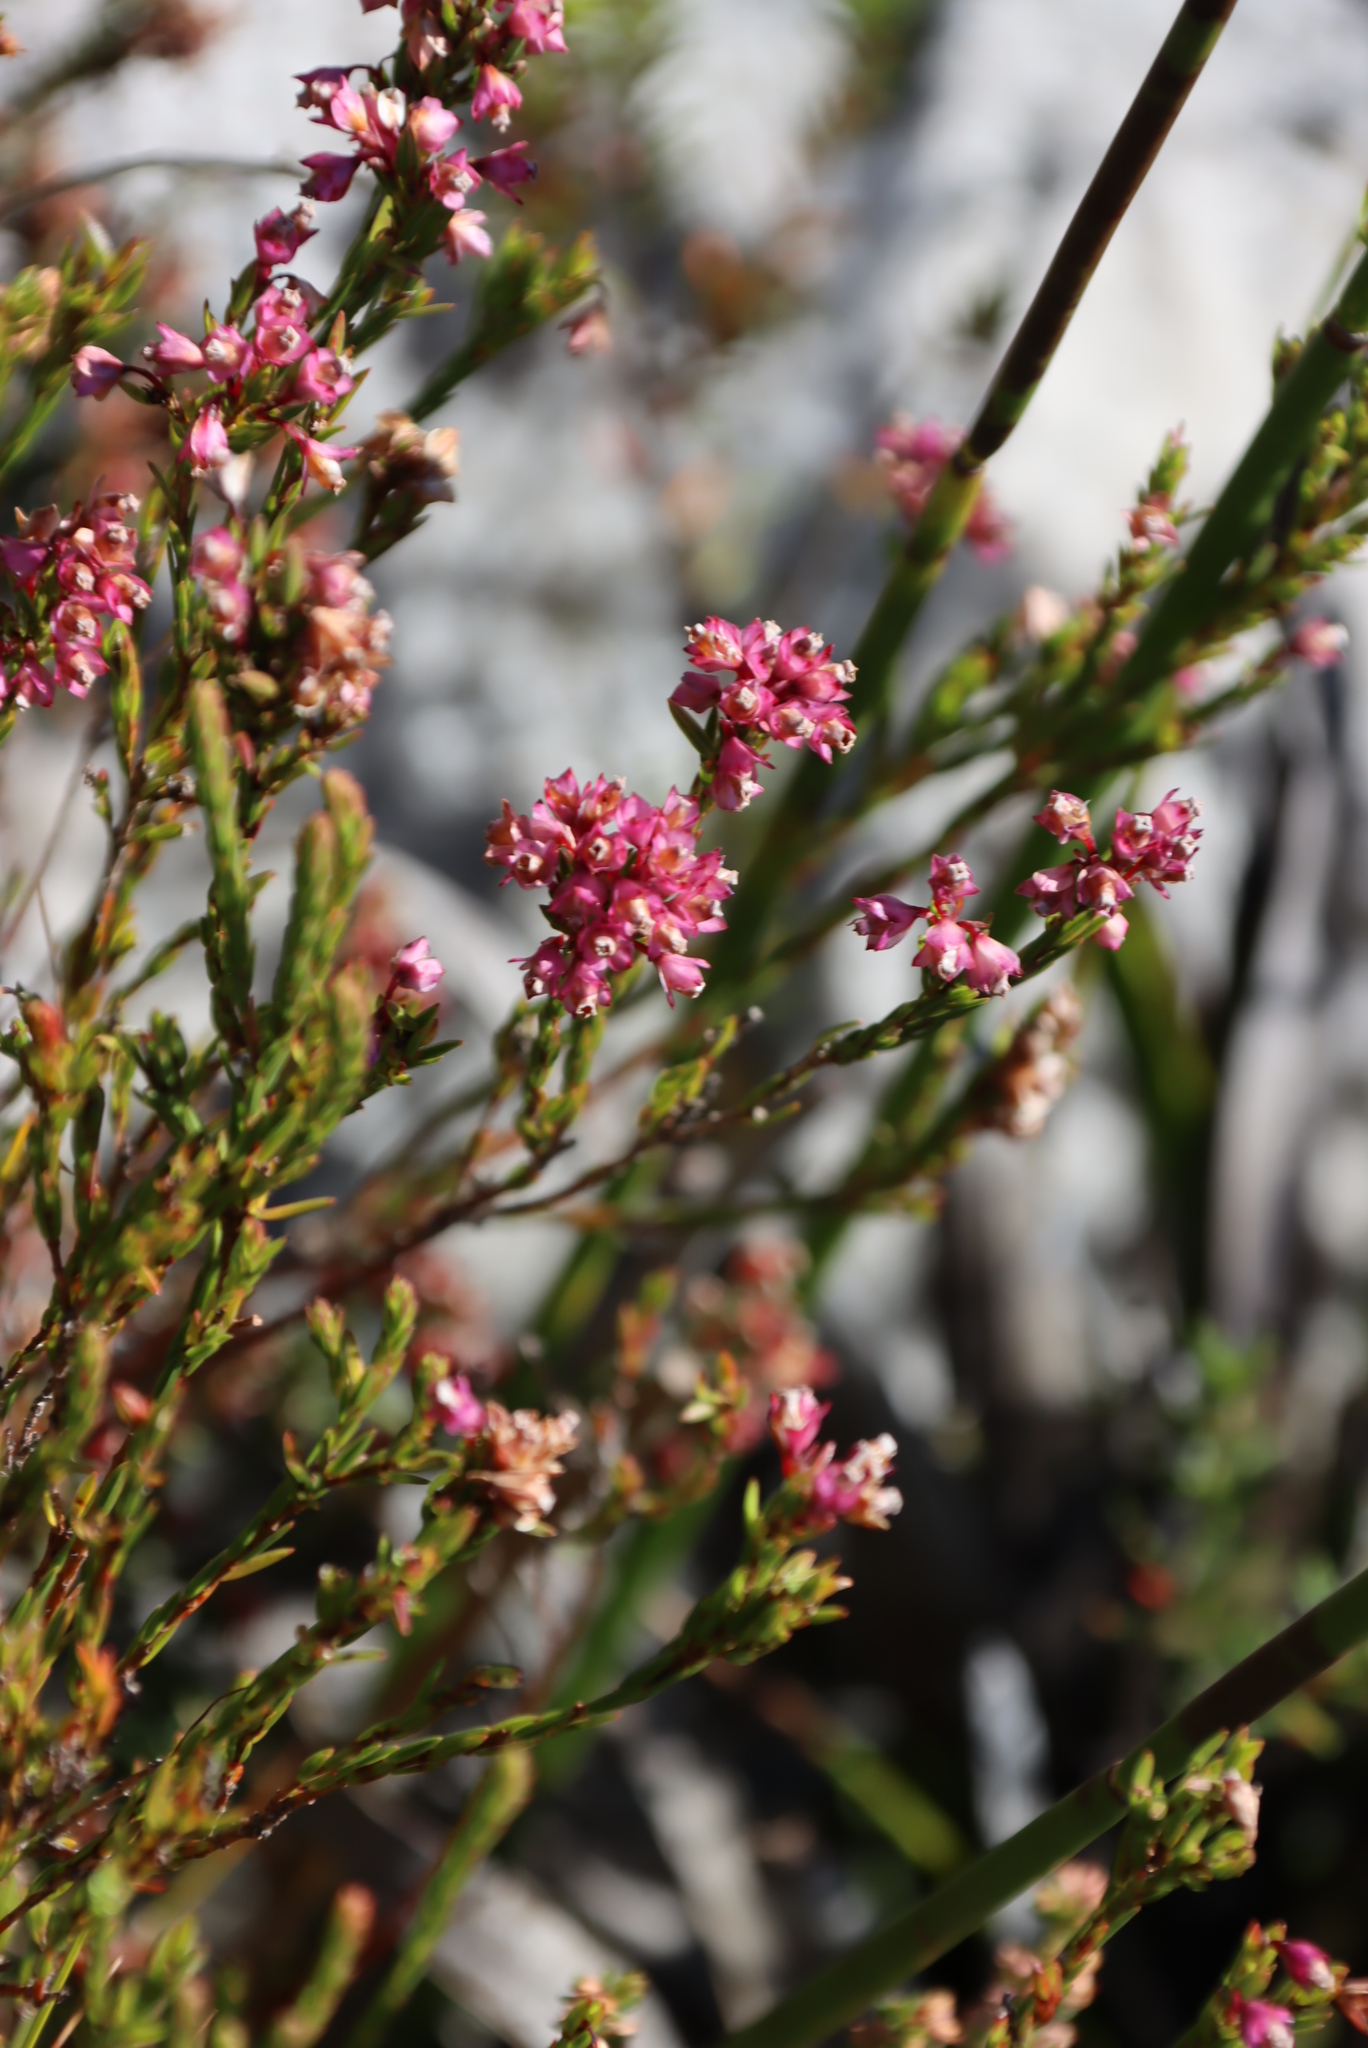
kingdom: Plantae
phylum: Tracheophyta
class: Magnoliopsida
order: Ericales
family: Ericaceae
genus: Erica
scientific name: Erica corifolia
